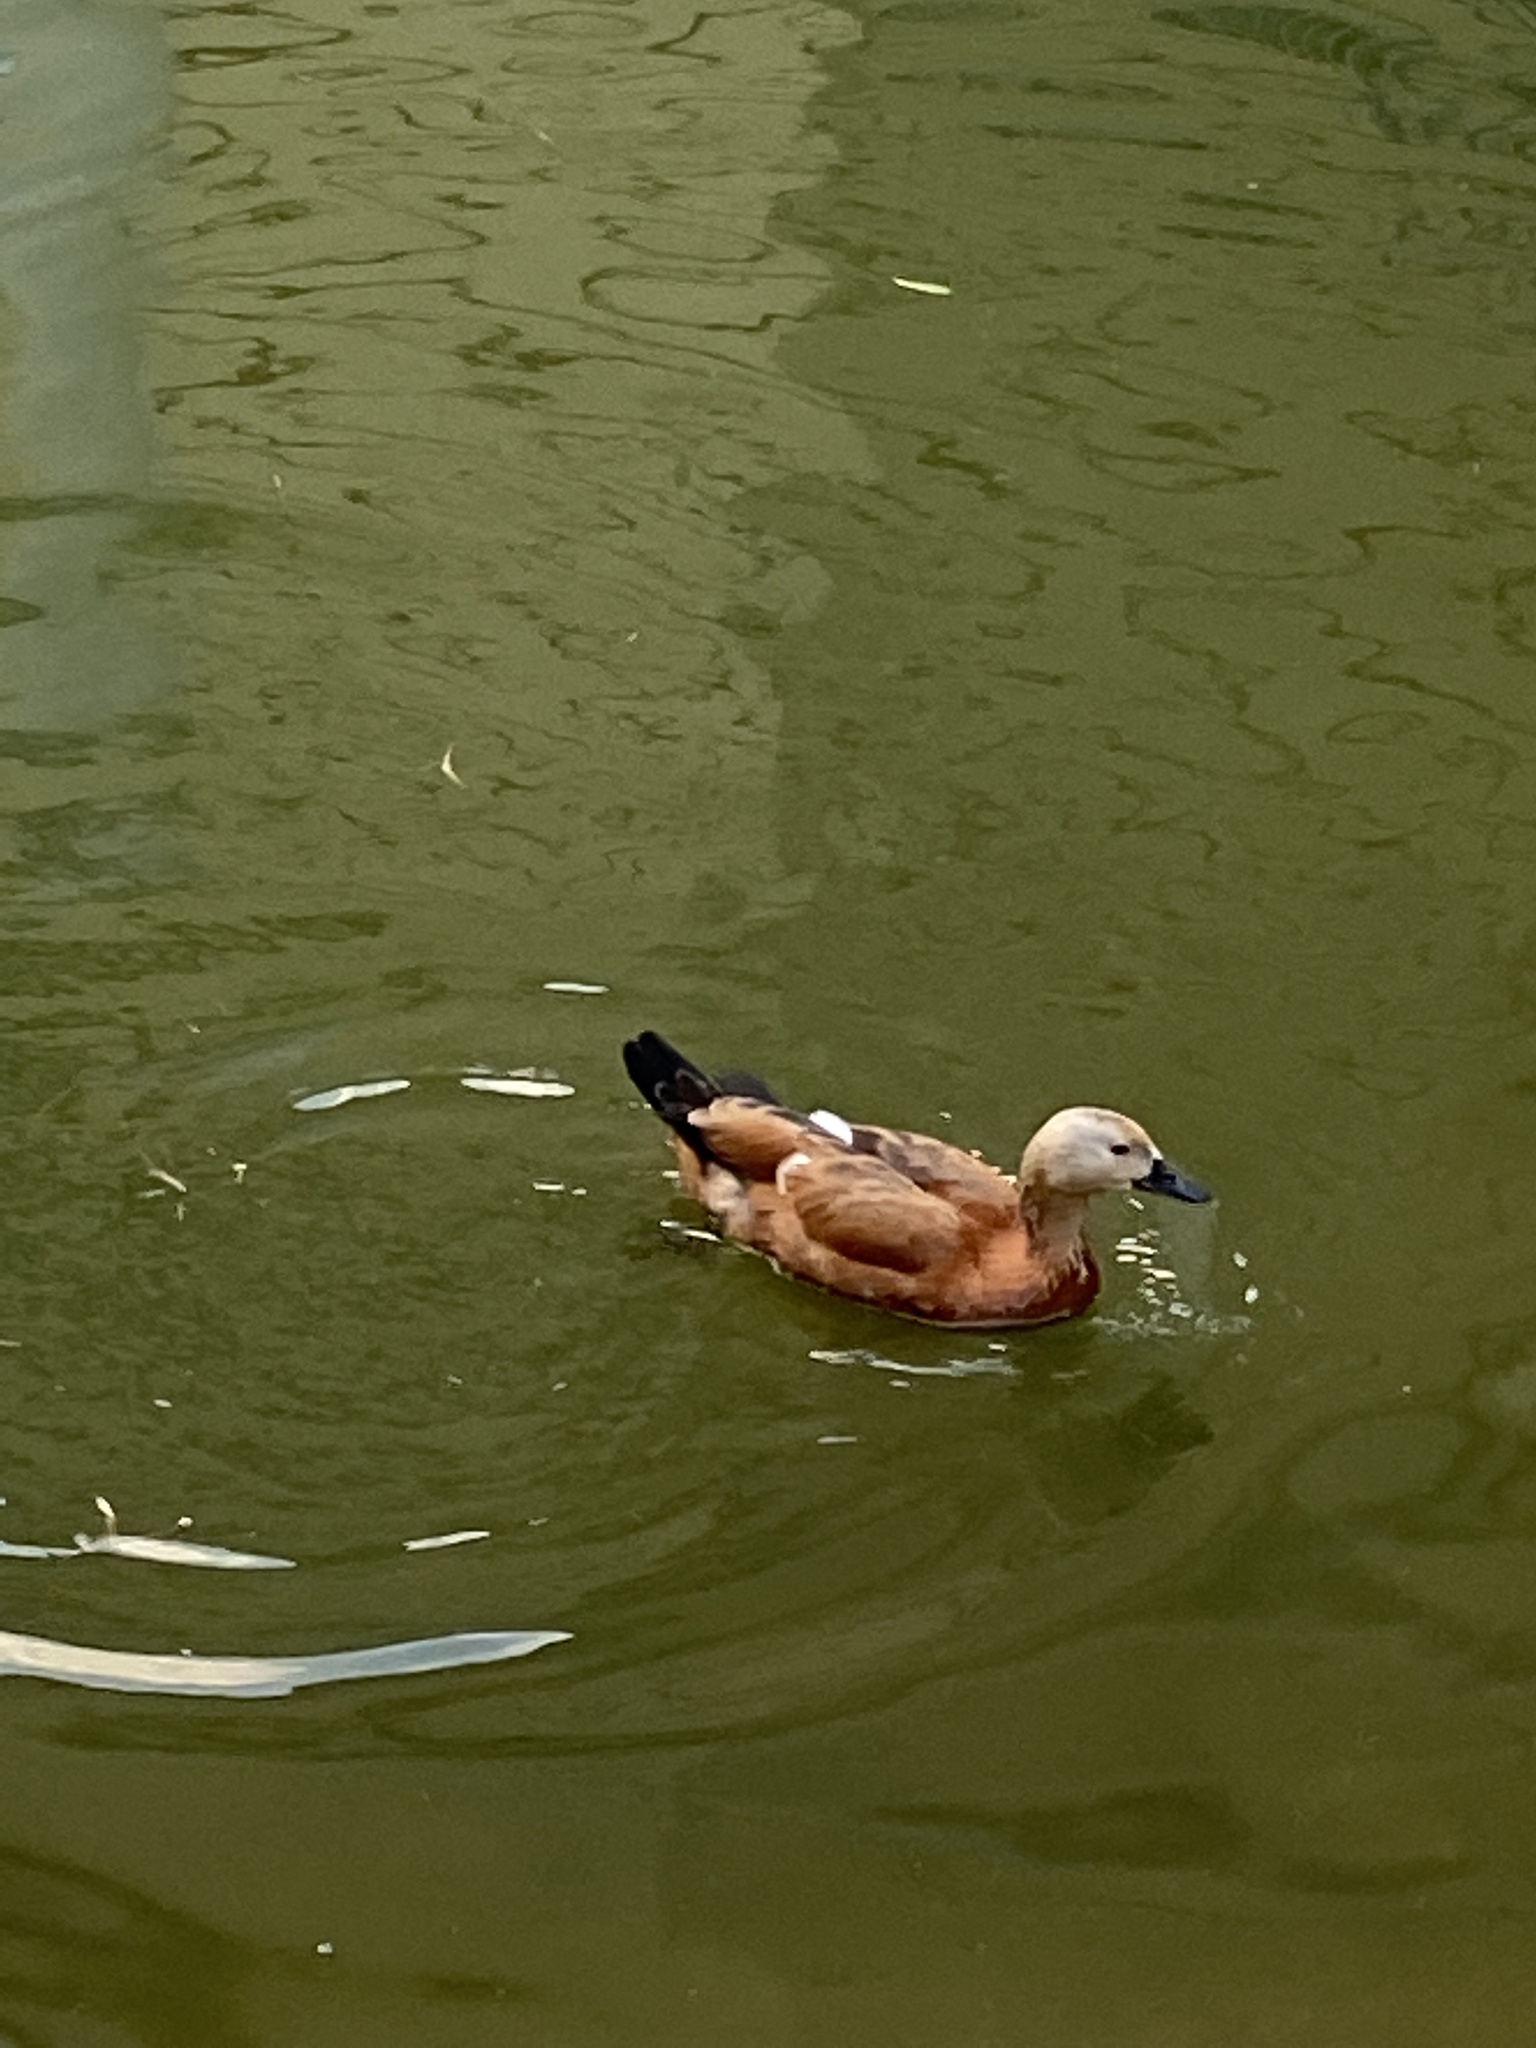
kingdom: Animalia
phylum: Chordata
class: Aves
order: Anseriformes
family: Anatidae
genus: Tadorna
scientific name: Tadorna ferruginea
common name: Ruddy shelduck
